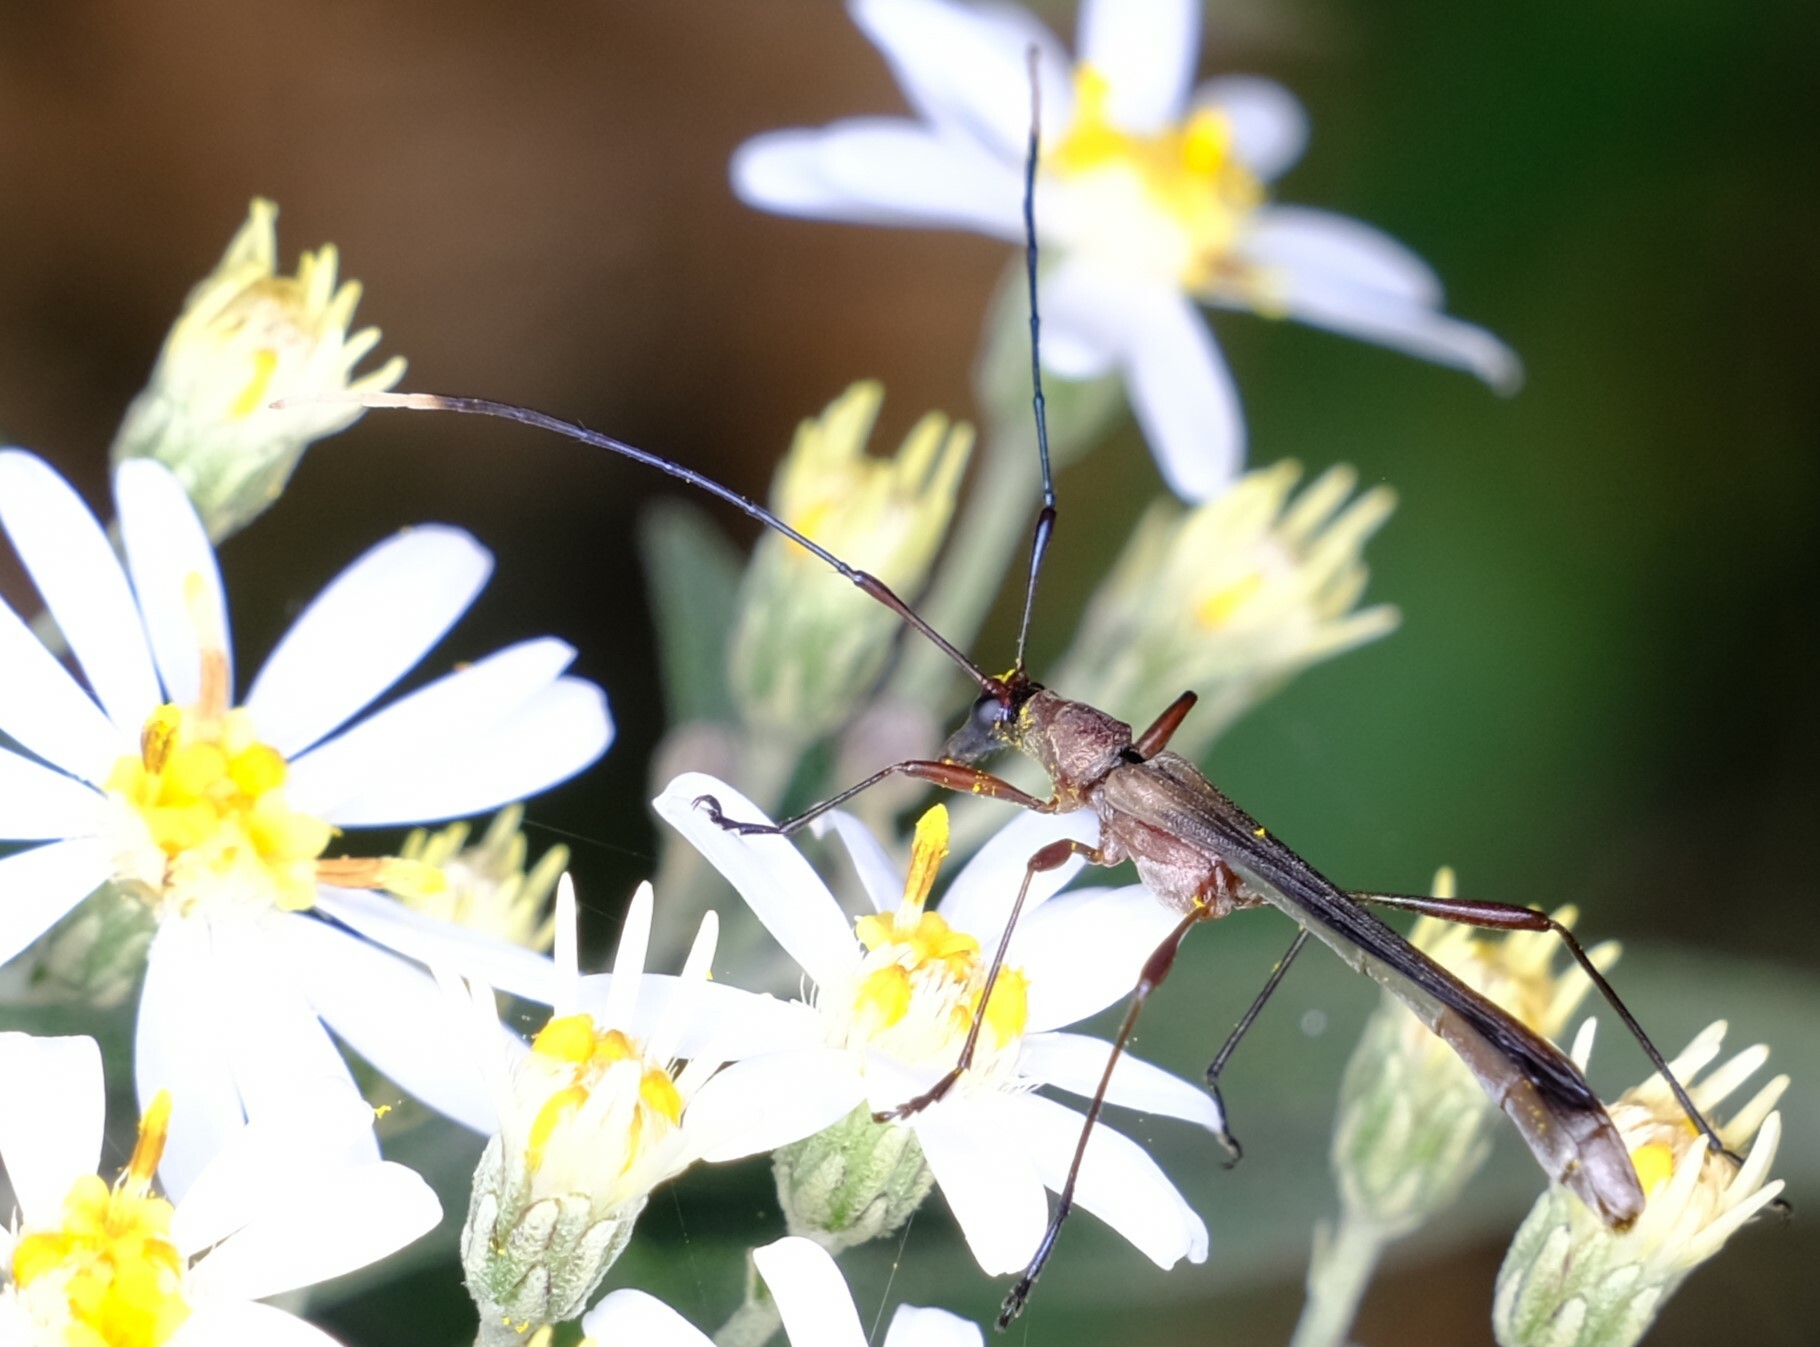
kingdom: Animalia
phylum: Arthropoda
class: Insecta
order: Coleoptera
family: Cerambycidae
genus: Enchoptera
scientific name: Enchoptera apicalis
